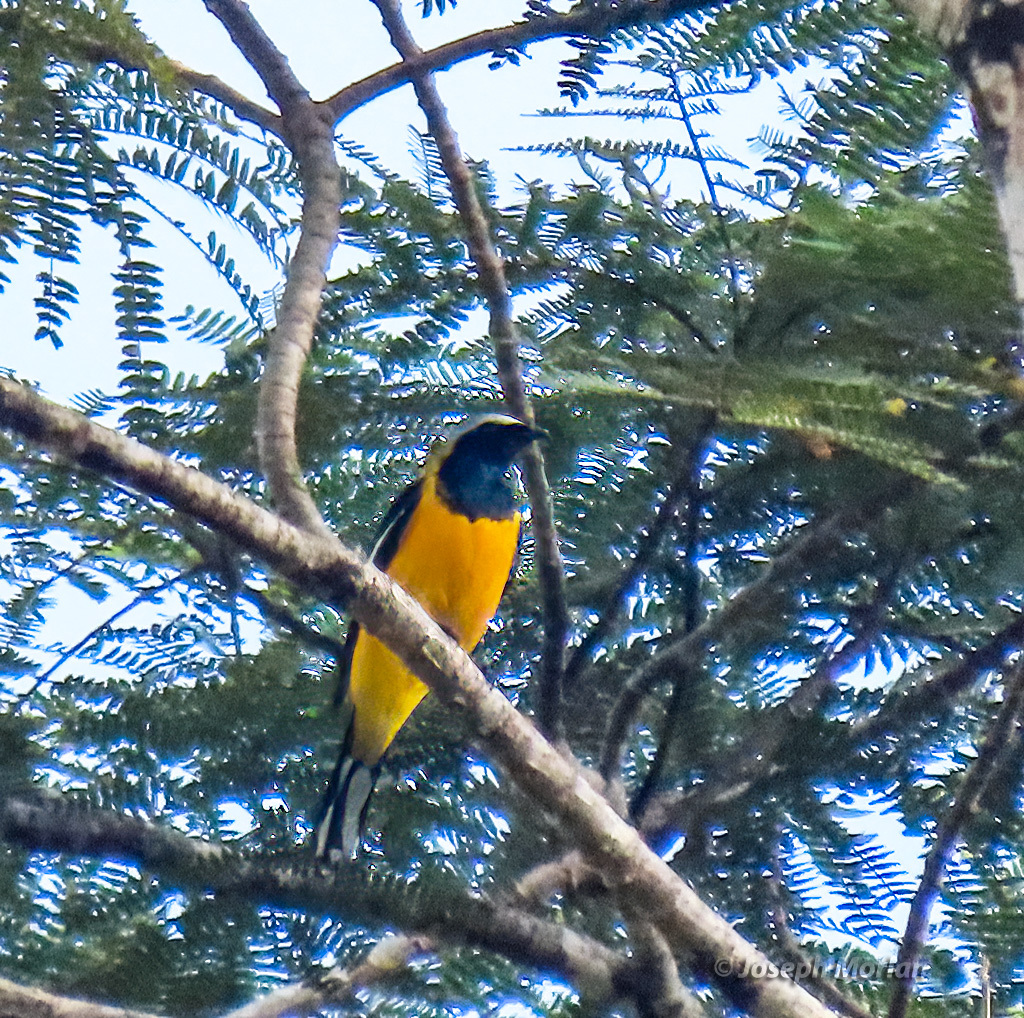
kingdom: Animalia
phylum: Chordata
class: Aves
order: Passeriformes
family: Campephagidae
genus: Campochaera
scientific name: Campochaera sloetii
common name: Golden cuckooshrike
